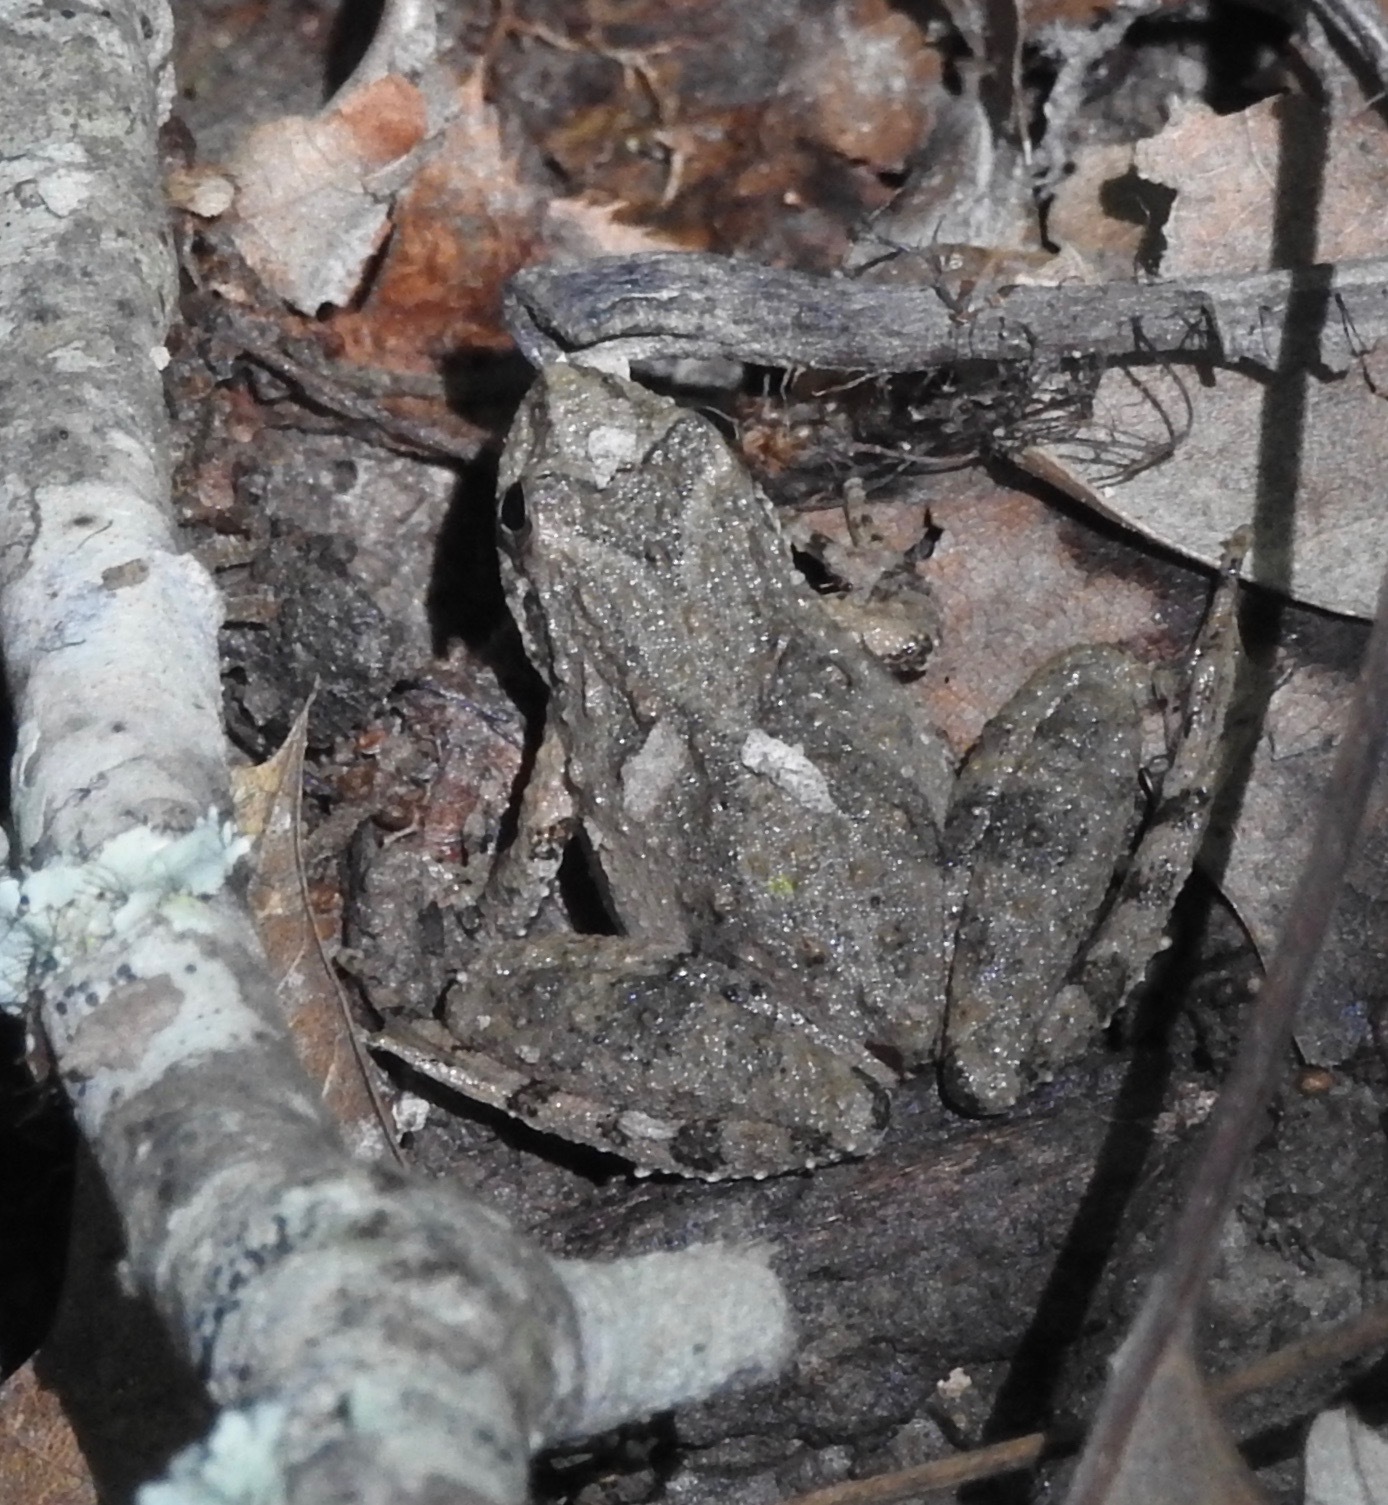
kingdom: Animalia
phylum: Chordata
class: Amphibia
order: Anura
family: Hylidae
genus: Acris
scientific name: Acris blanchardi
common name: Blanchard's cricket frog
